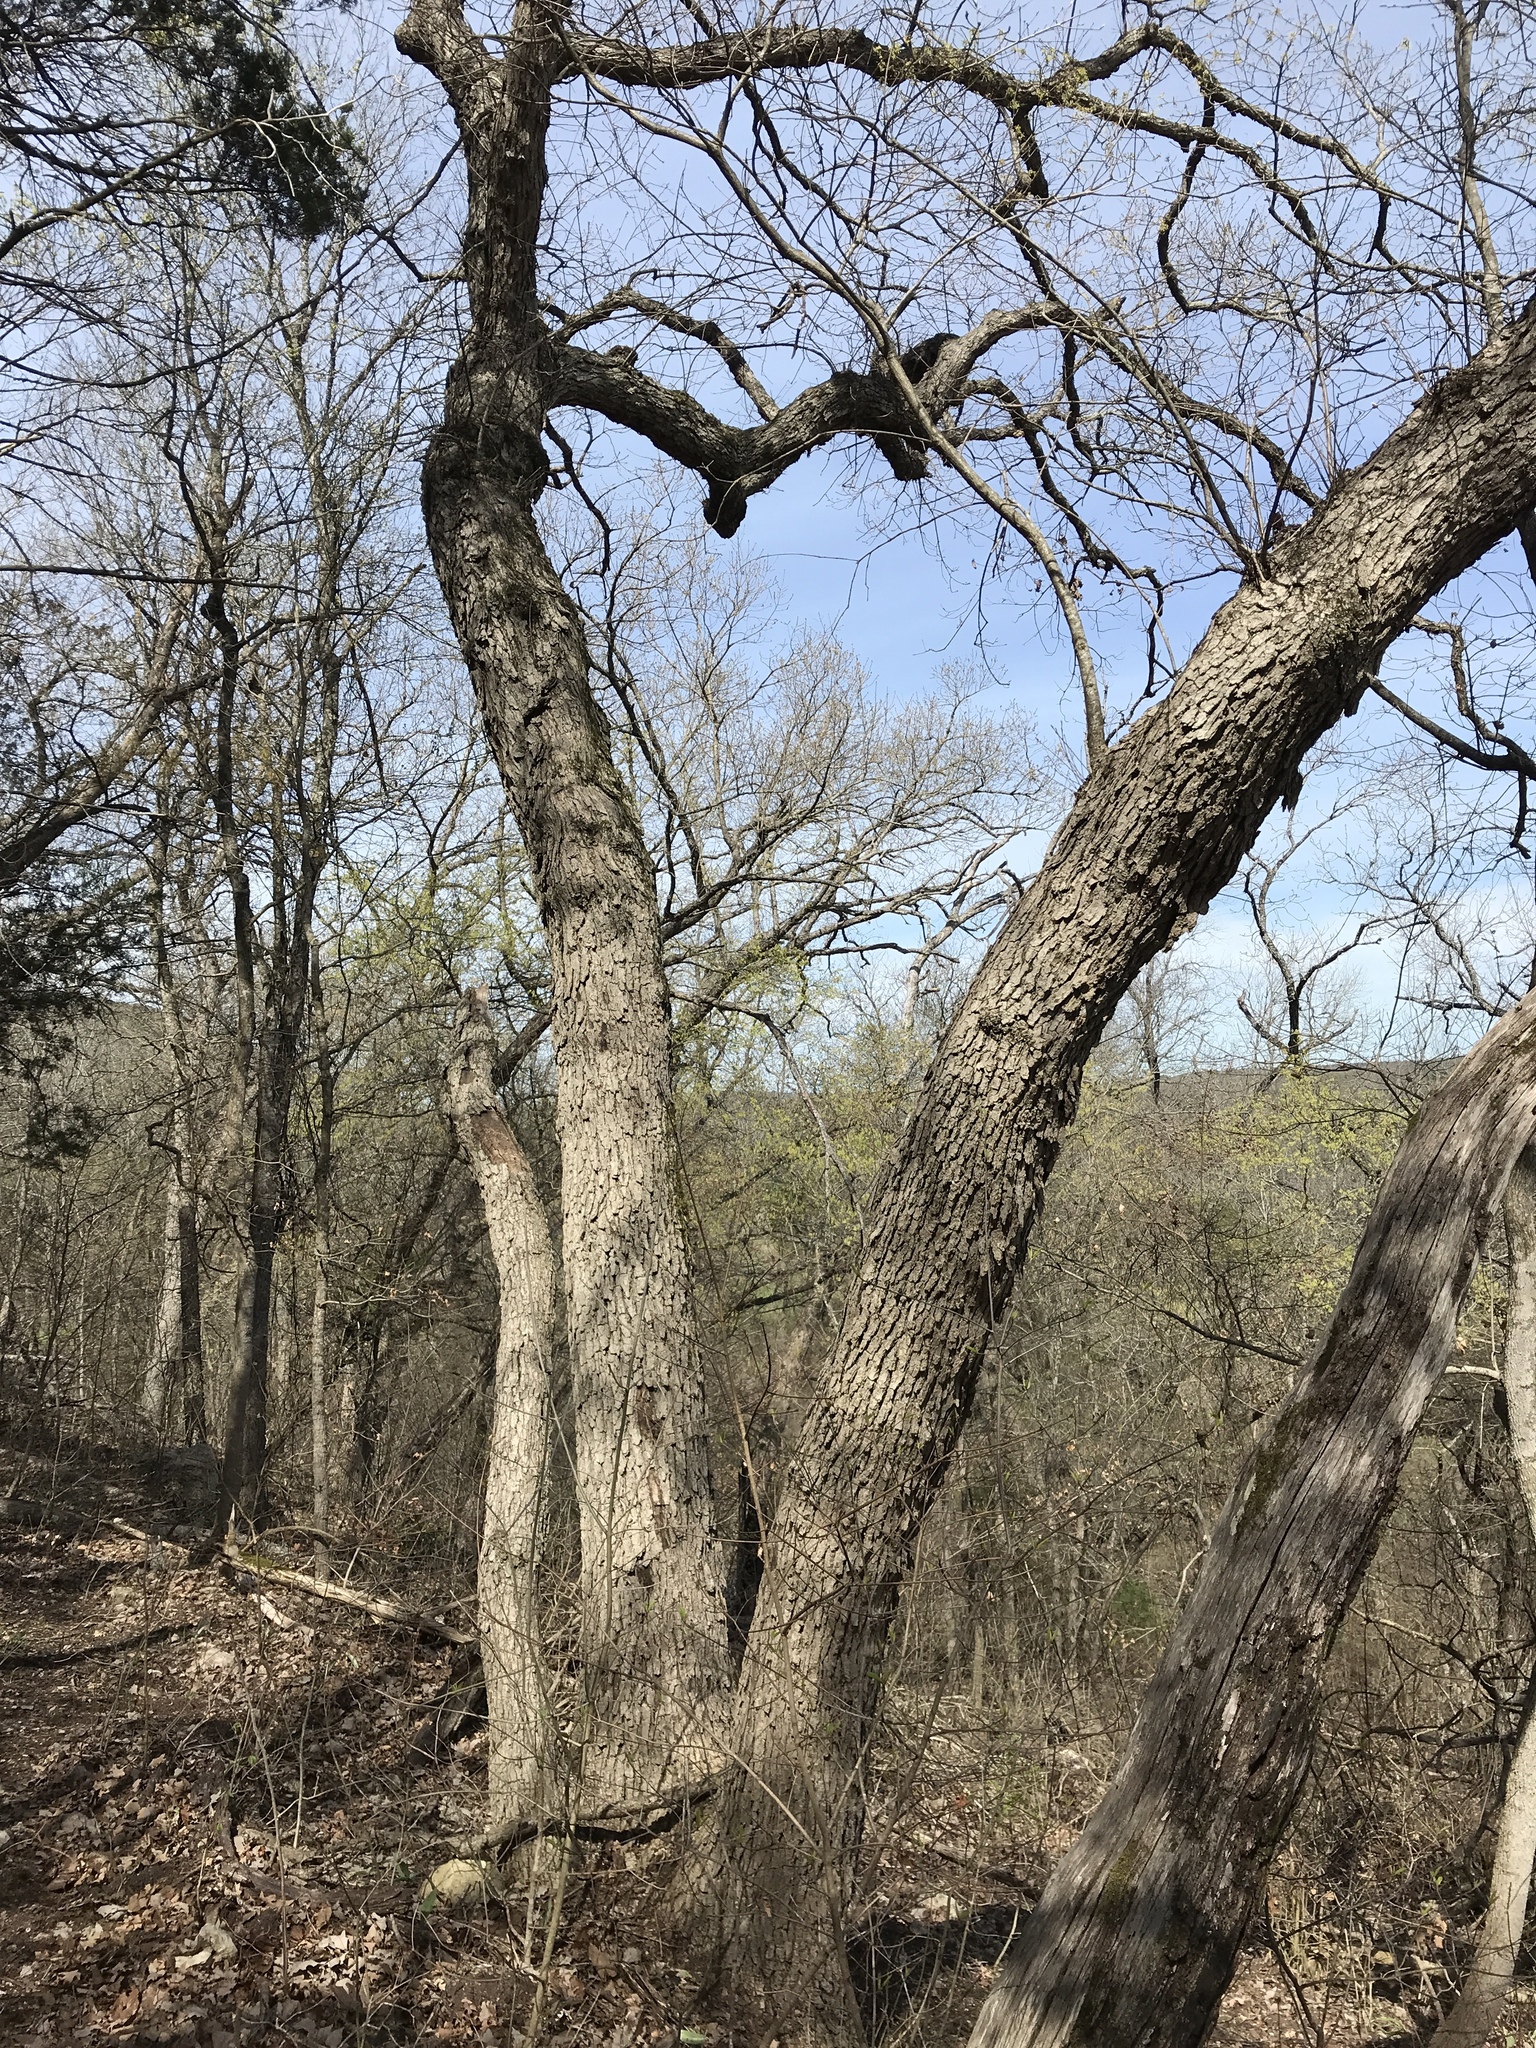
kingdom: Plantae
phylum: Tracheophyta
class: Magnoliopsida
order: Fagales
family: Fagaceae
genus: Quercus
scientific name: Quercus muehlenbergii
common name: Chinkapin oak
